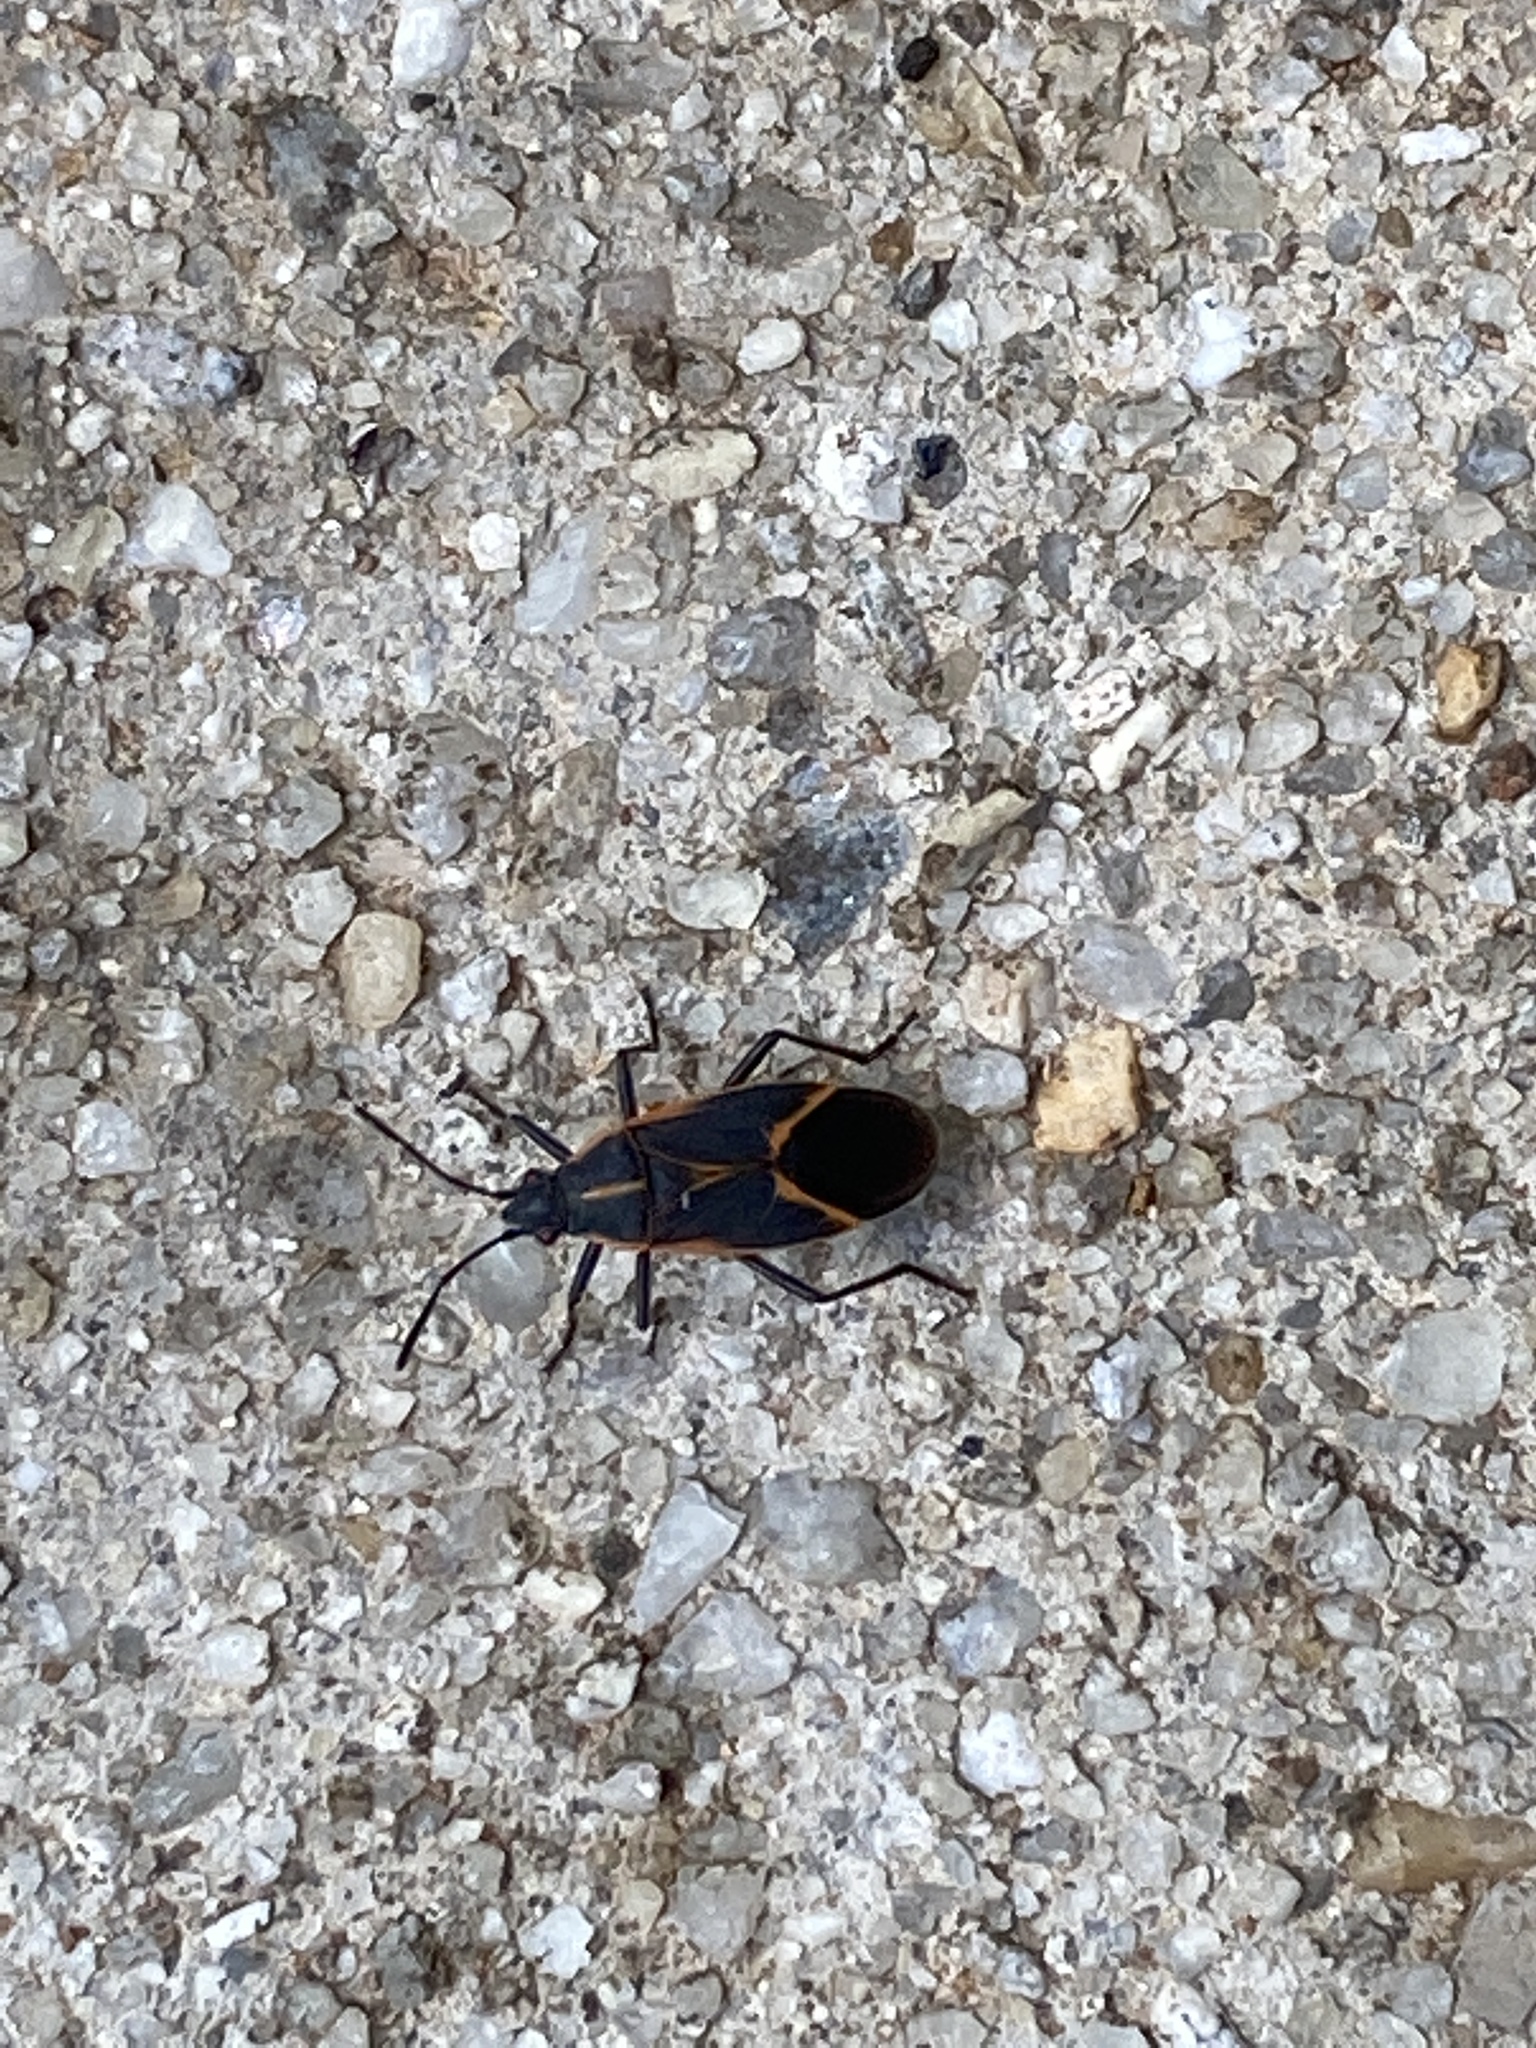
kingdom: Animalia
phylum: Arthropoda
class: Insecta
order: Hemiptera
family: Rhopalidae
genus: Boisea
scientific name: Boisea trivittata
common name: Boxelder bug
